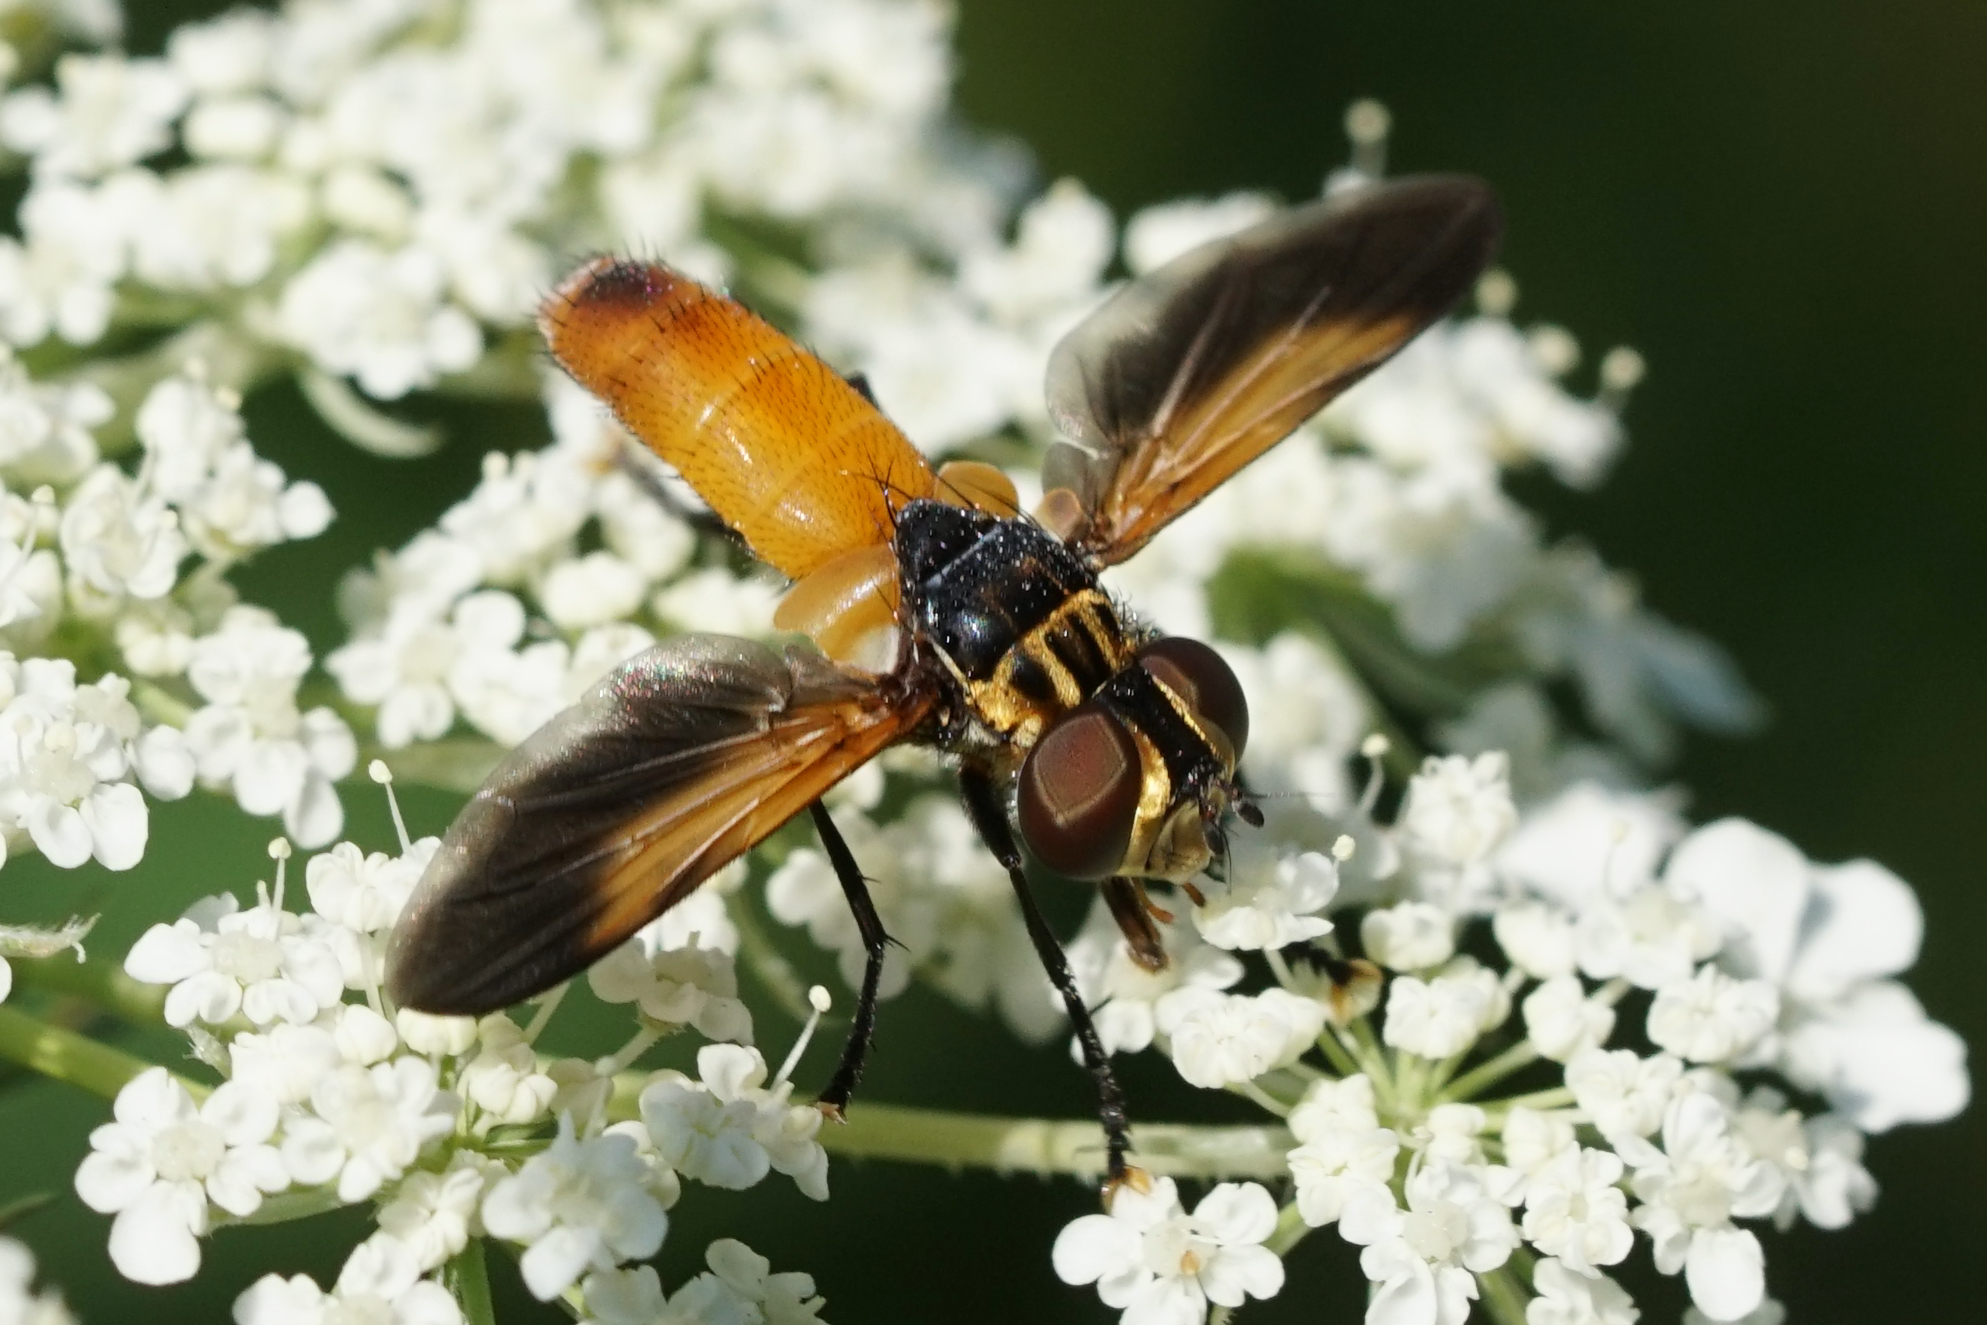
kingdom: Animalia
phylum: Arthropoda
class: Insecta
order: Diptera
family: Tachinidae
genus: Trichopoda
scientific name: Trichopoda pennipes
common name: Tachinid fly
